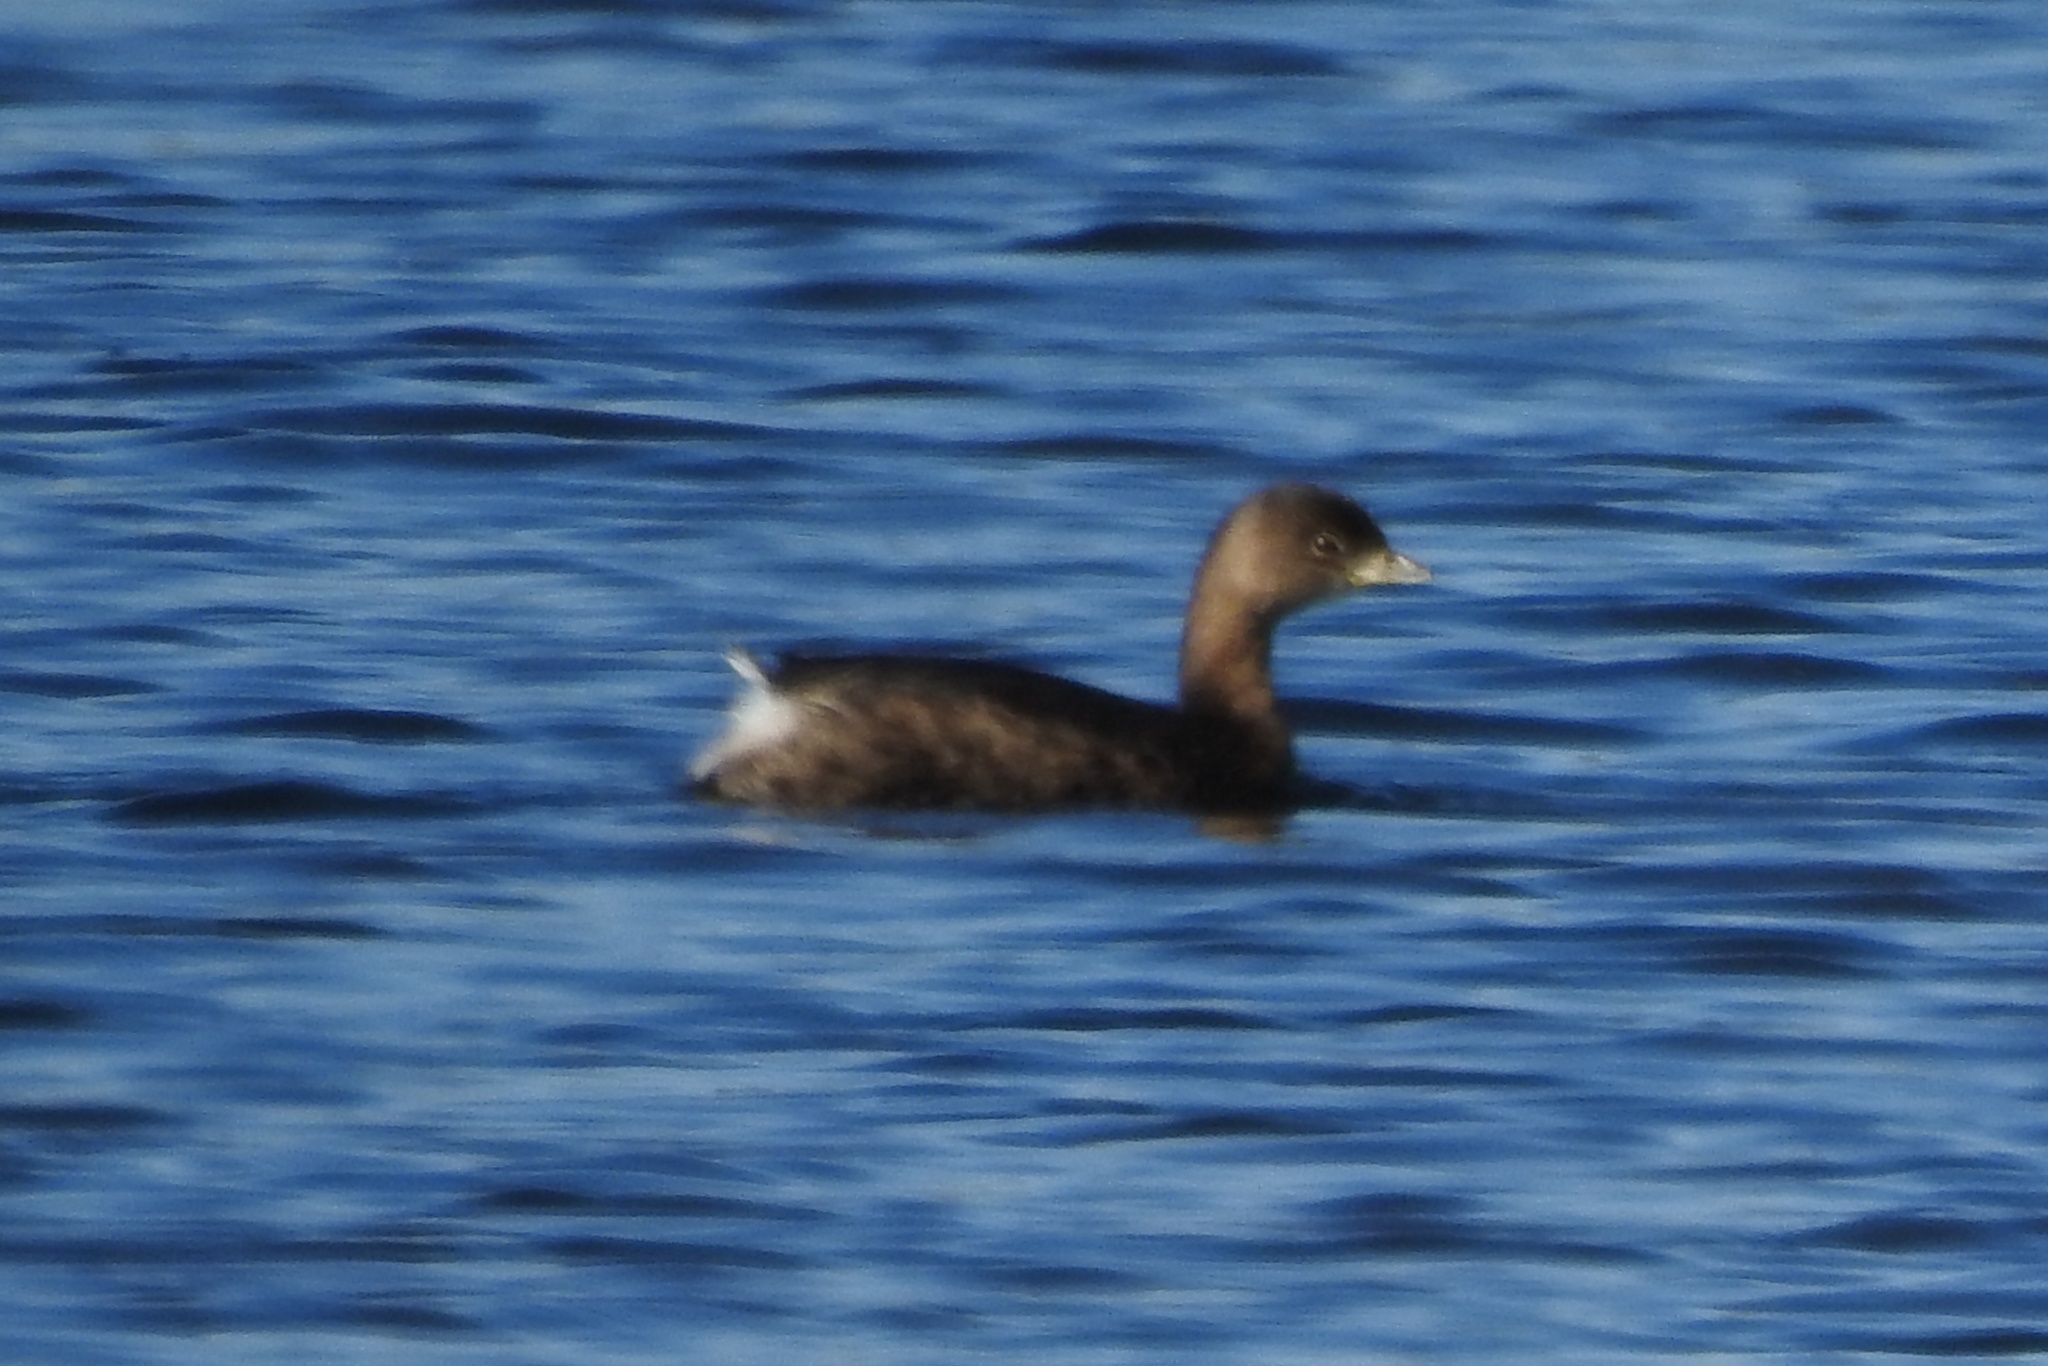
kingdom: Animalia
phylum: Chordata
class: Aves
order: Podicipediformes
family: Podicipedidae
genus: Podilymbus
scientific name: Podilymbus podiceps
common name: Pied-billed grebe
